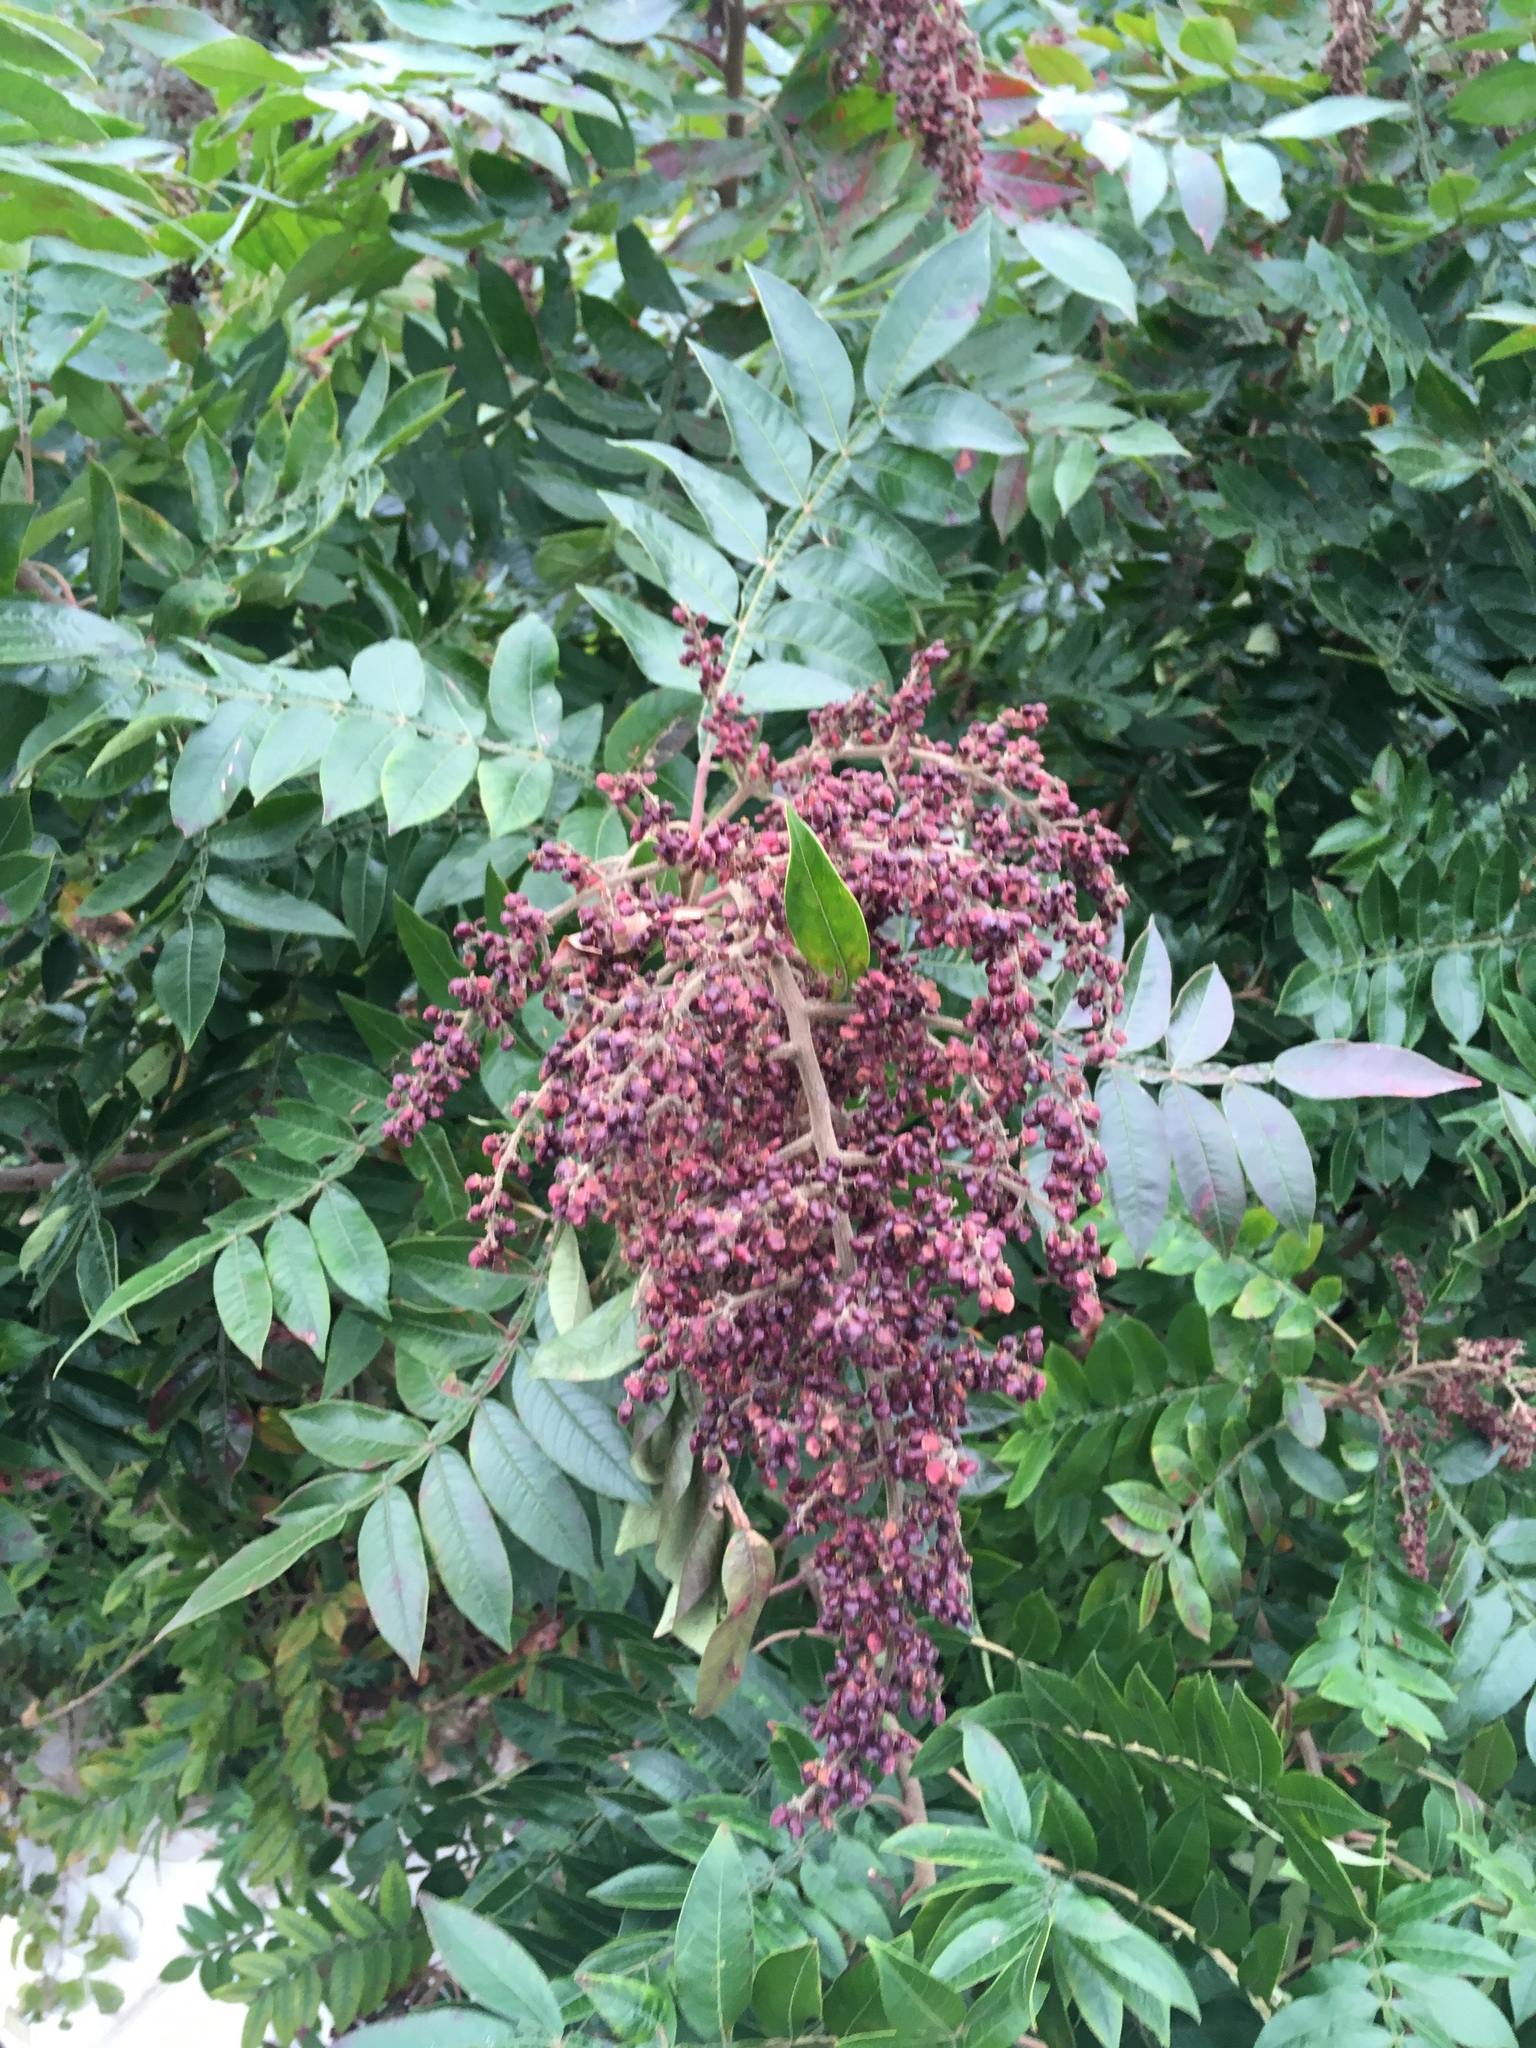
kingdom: Plantae
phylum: Tracheophyta
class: Magnoliopsida
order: Sapindales
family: Anacardiaceae
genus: Rhus
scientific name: Rhus copallina
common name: Shining sumac
